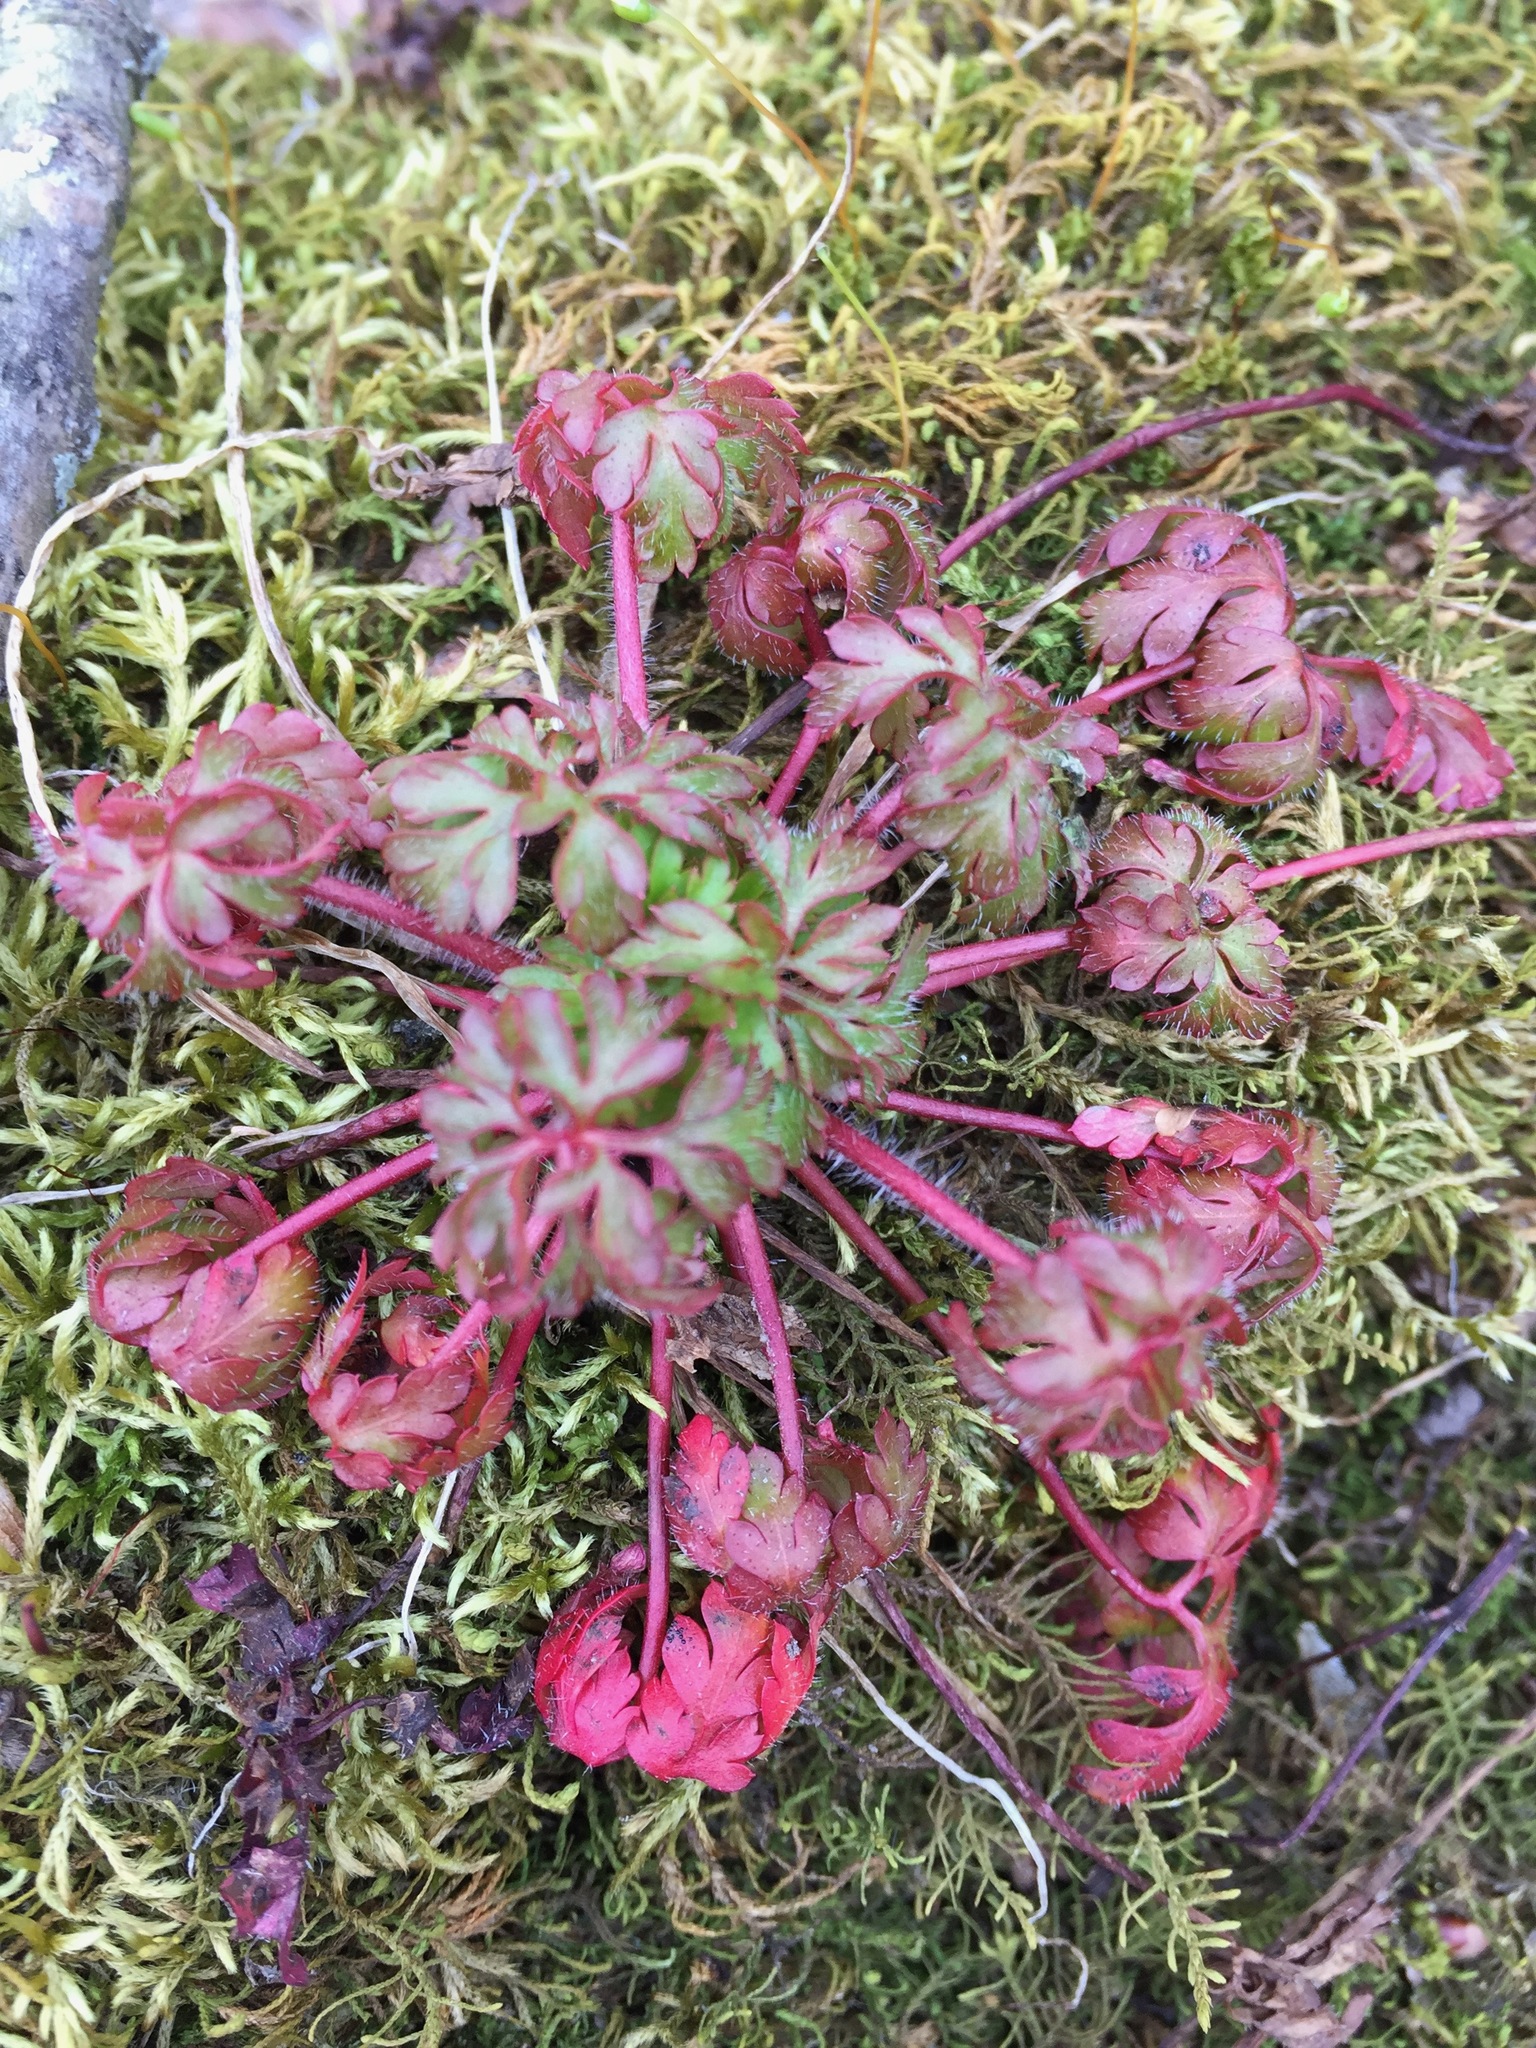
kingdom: Plantae
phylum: Tracheophyta
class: Magnoliopsida
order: Geraniales
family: Geraniaceae
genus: Geranium
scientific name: Geranium robertianum
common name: Herb-robert
